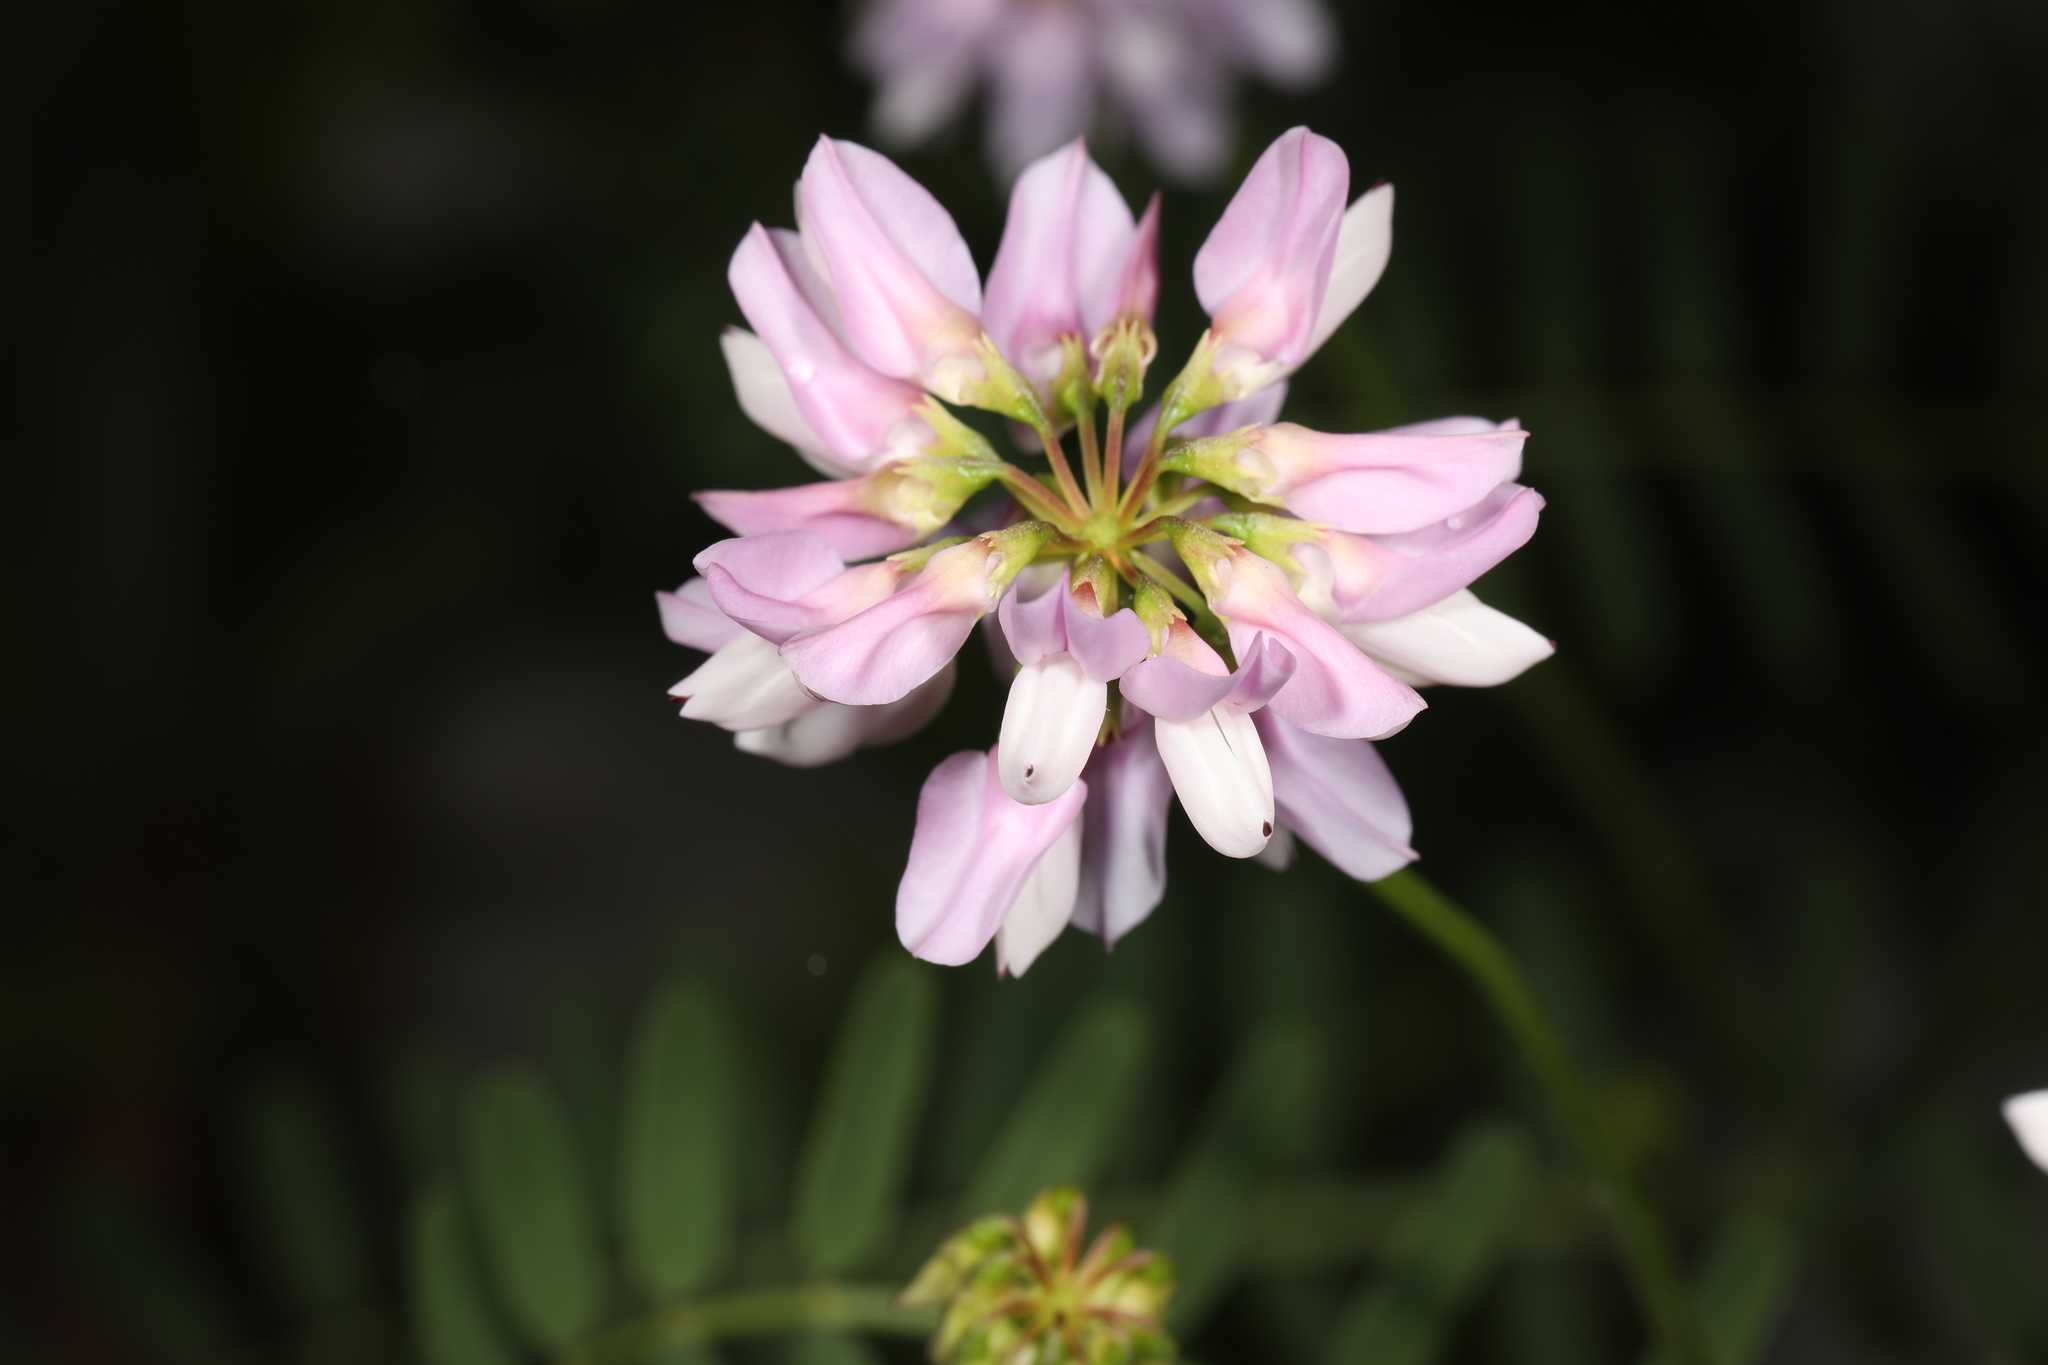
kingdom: Plantae
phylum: Tracheophyta
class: Magnoliopsida
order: Fabales
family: Fabaceae
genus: Coronilla
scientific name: Coronilla varia
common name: Crownvetch
